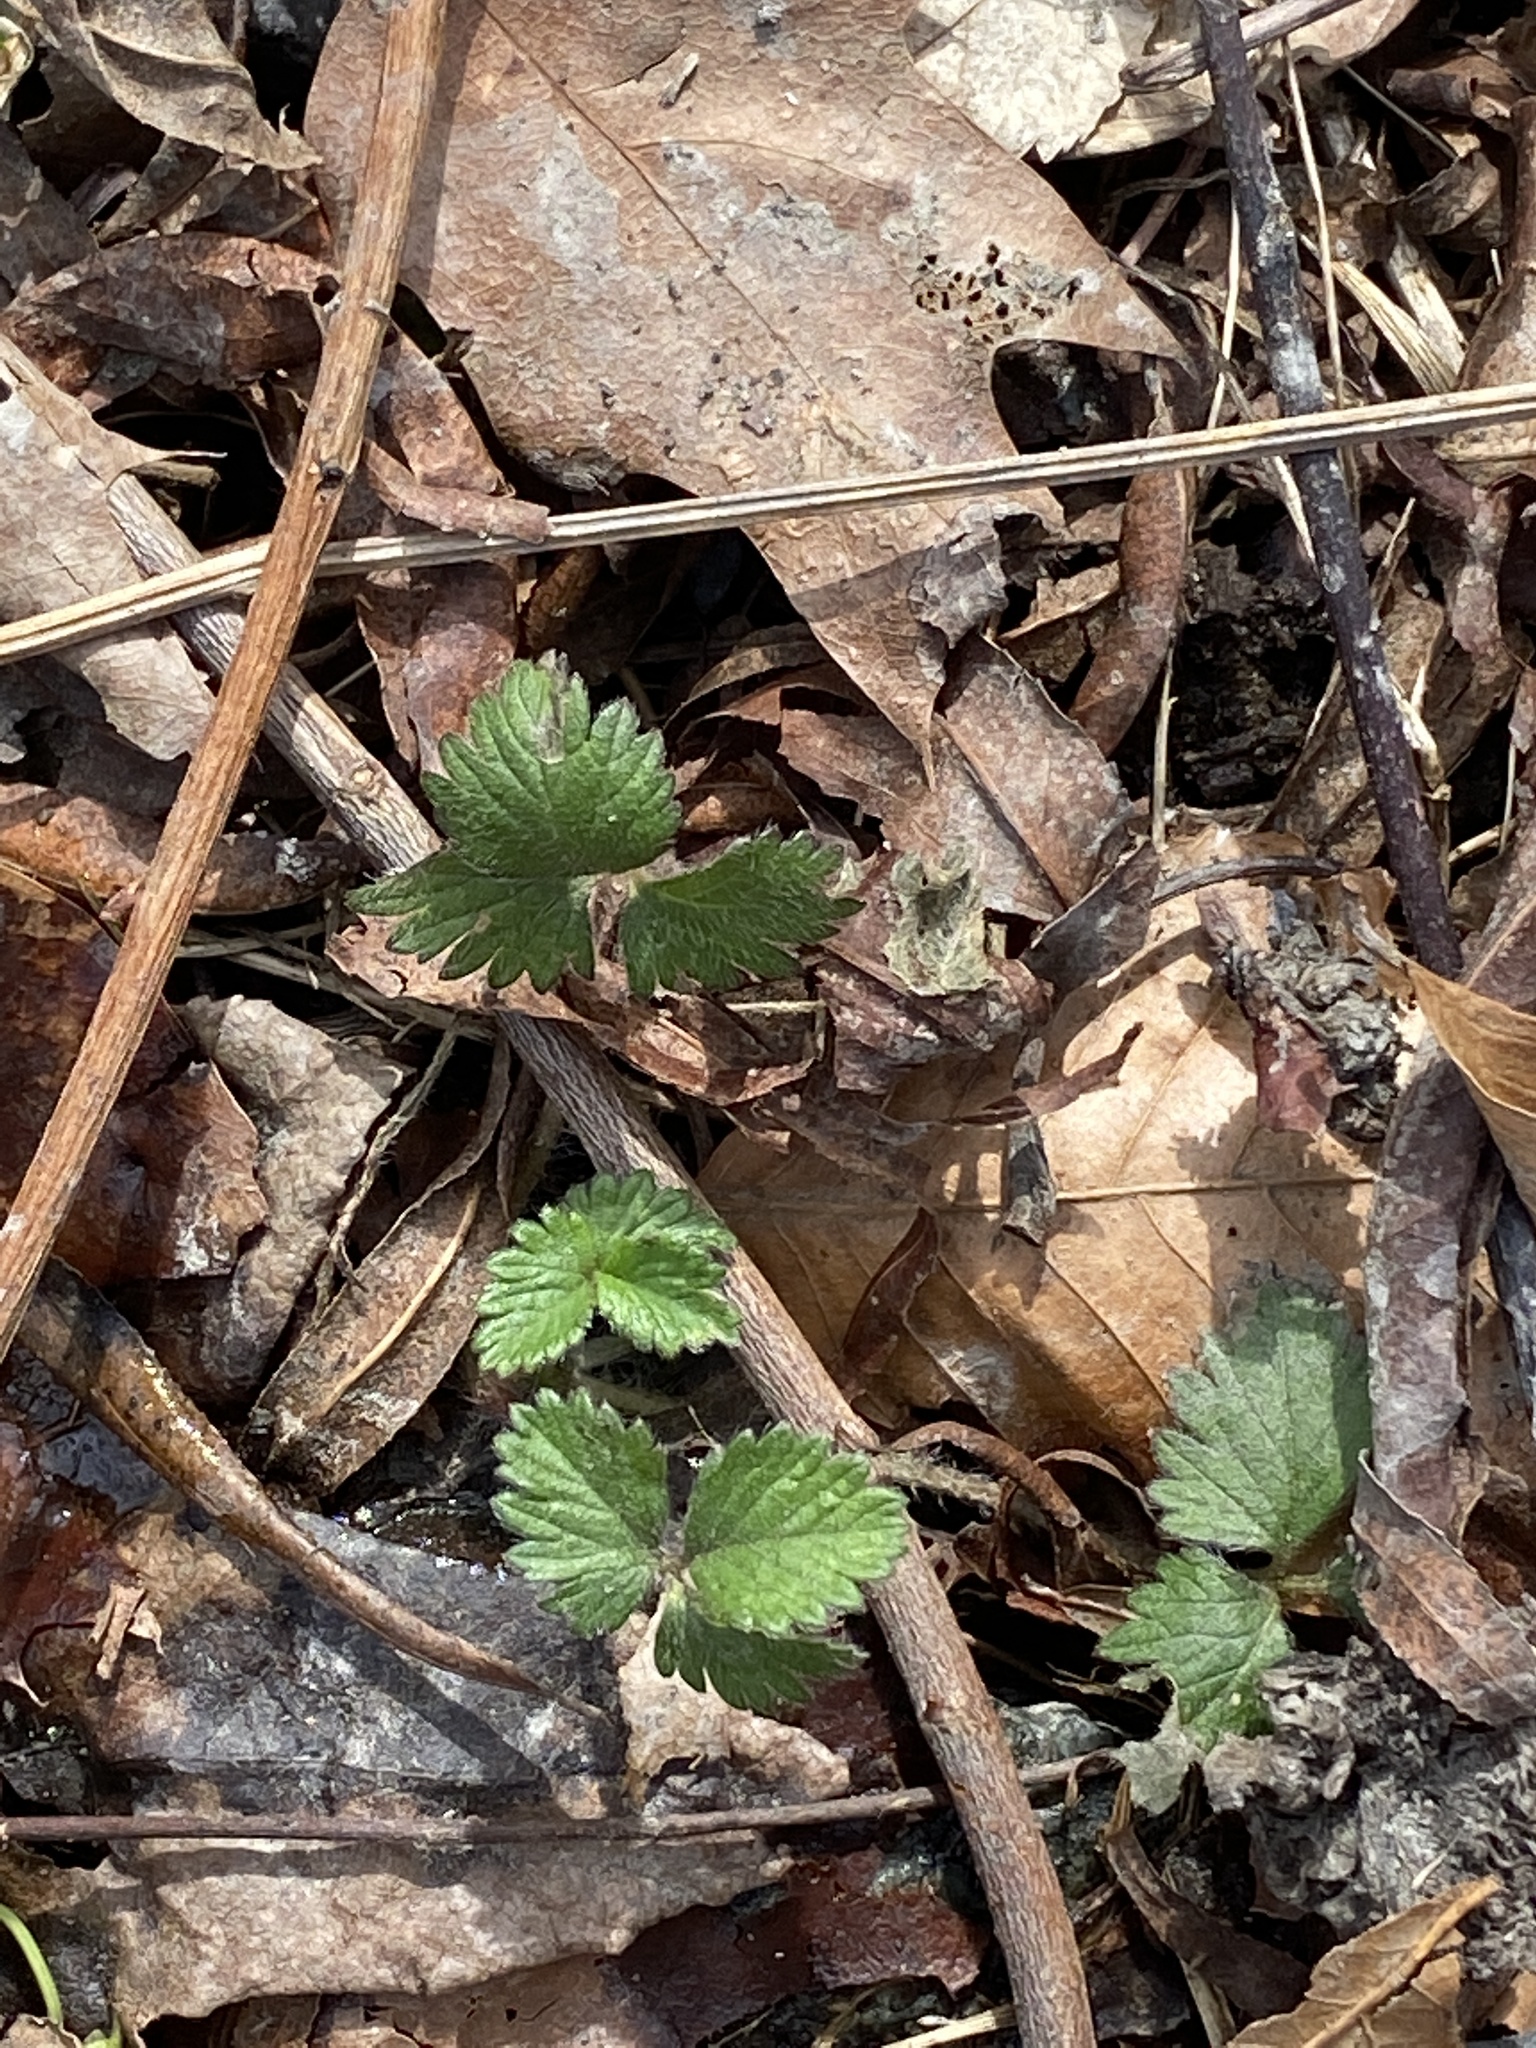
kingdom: Plantae
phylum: Tracheophyta
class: Magnoliopsida
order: Rosales
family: Rosaceae
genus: Potentilla
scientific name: Potentilla indica
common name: Yellow-flowered strawberry
